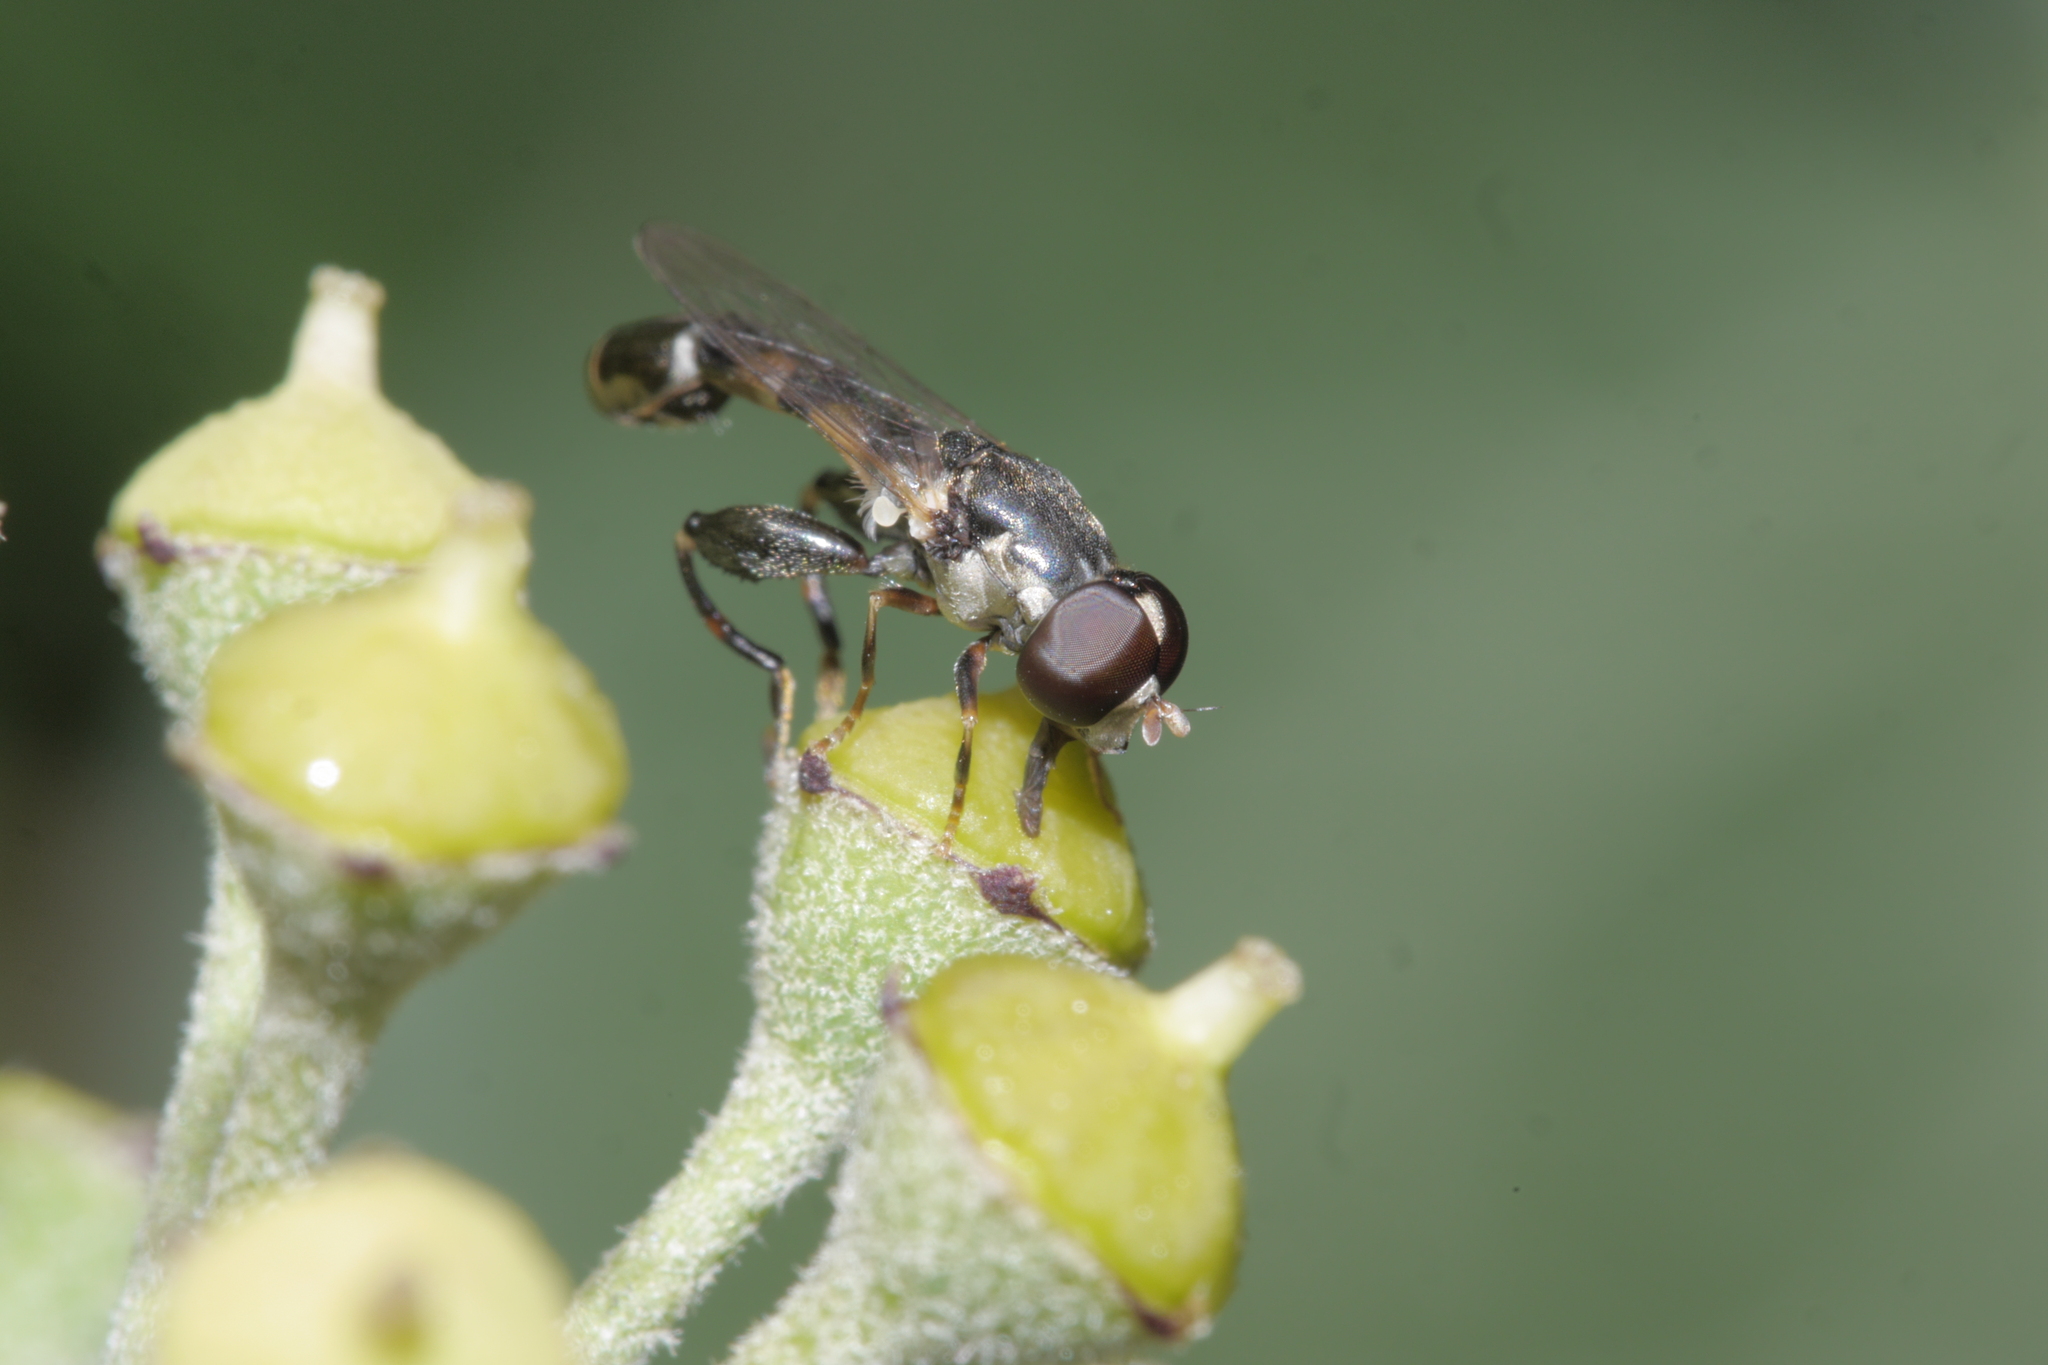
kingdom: Animalia
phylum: Arthropoda
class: Insecta
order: Diptera
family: Syrphidae
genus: Syritta
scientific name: Syritta pipiens
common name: Hover fly
